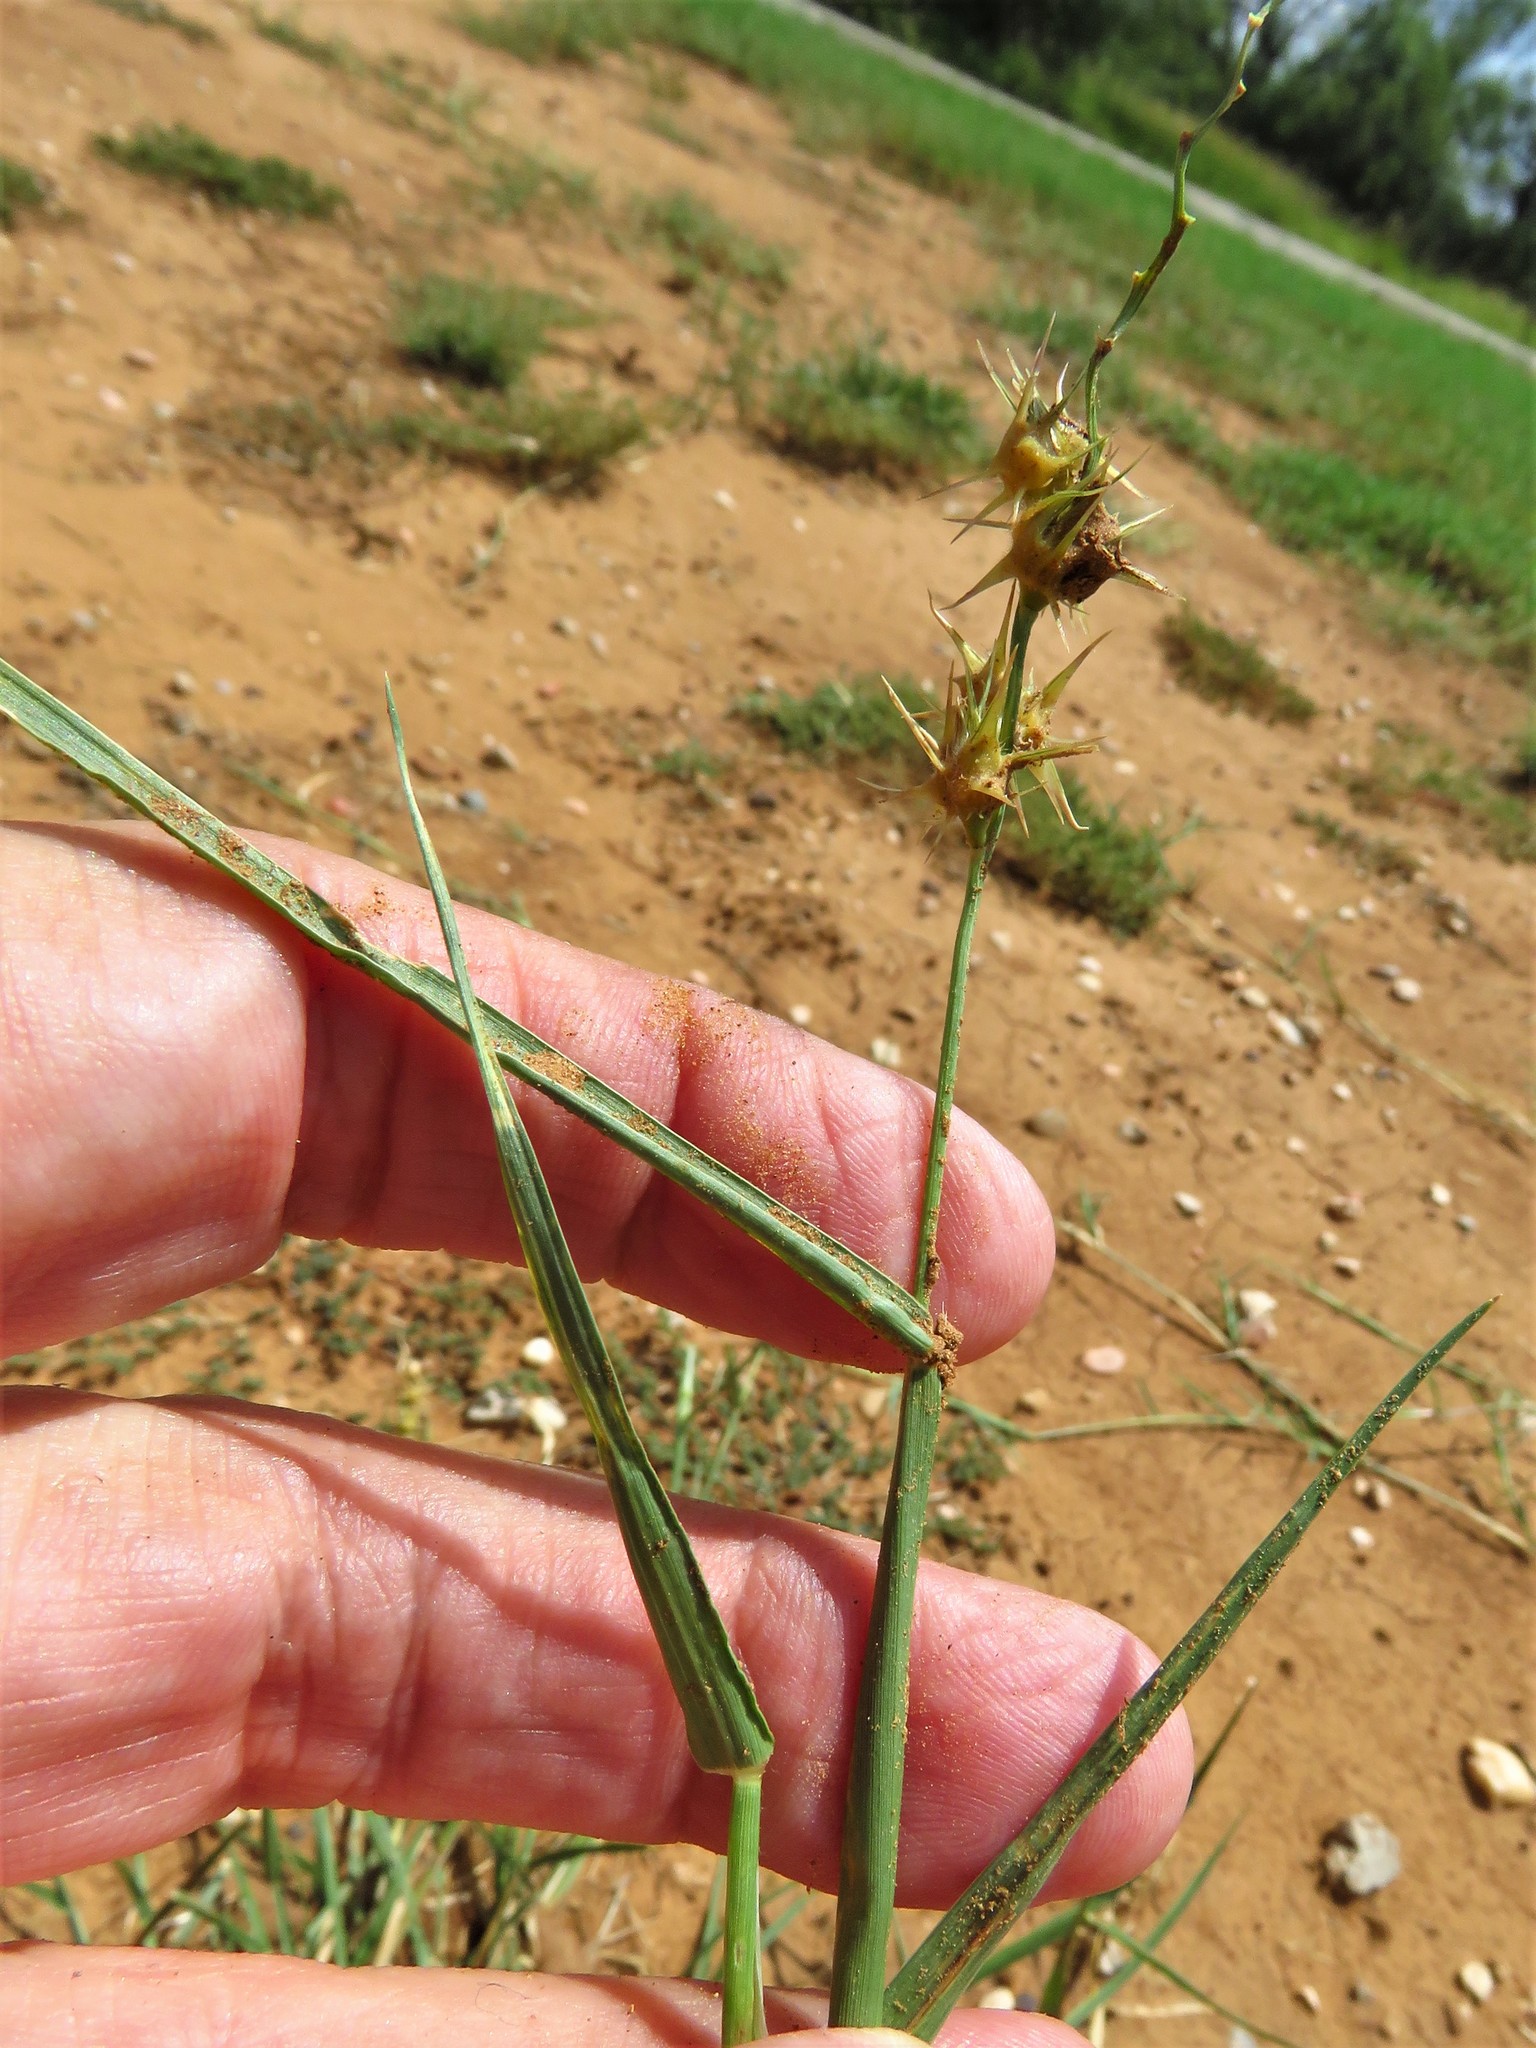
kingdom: Plantae
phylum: Tracheophyta
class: Liliopsida
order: Poales
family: Poaceae
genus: Cenchrus
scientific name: Cenchrus spinifex
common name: Coast sandbur
